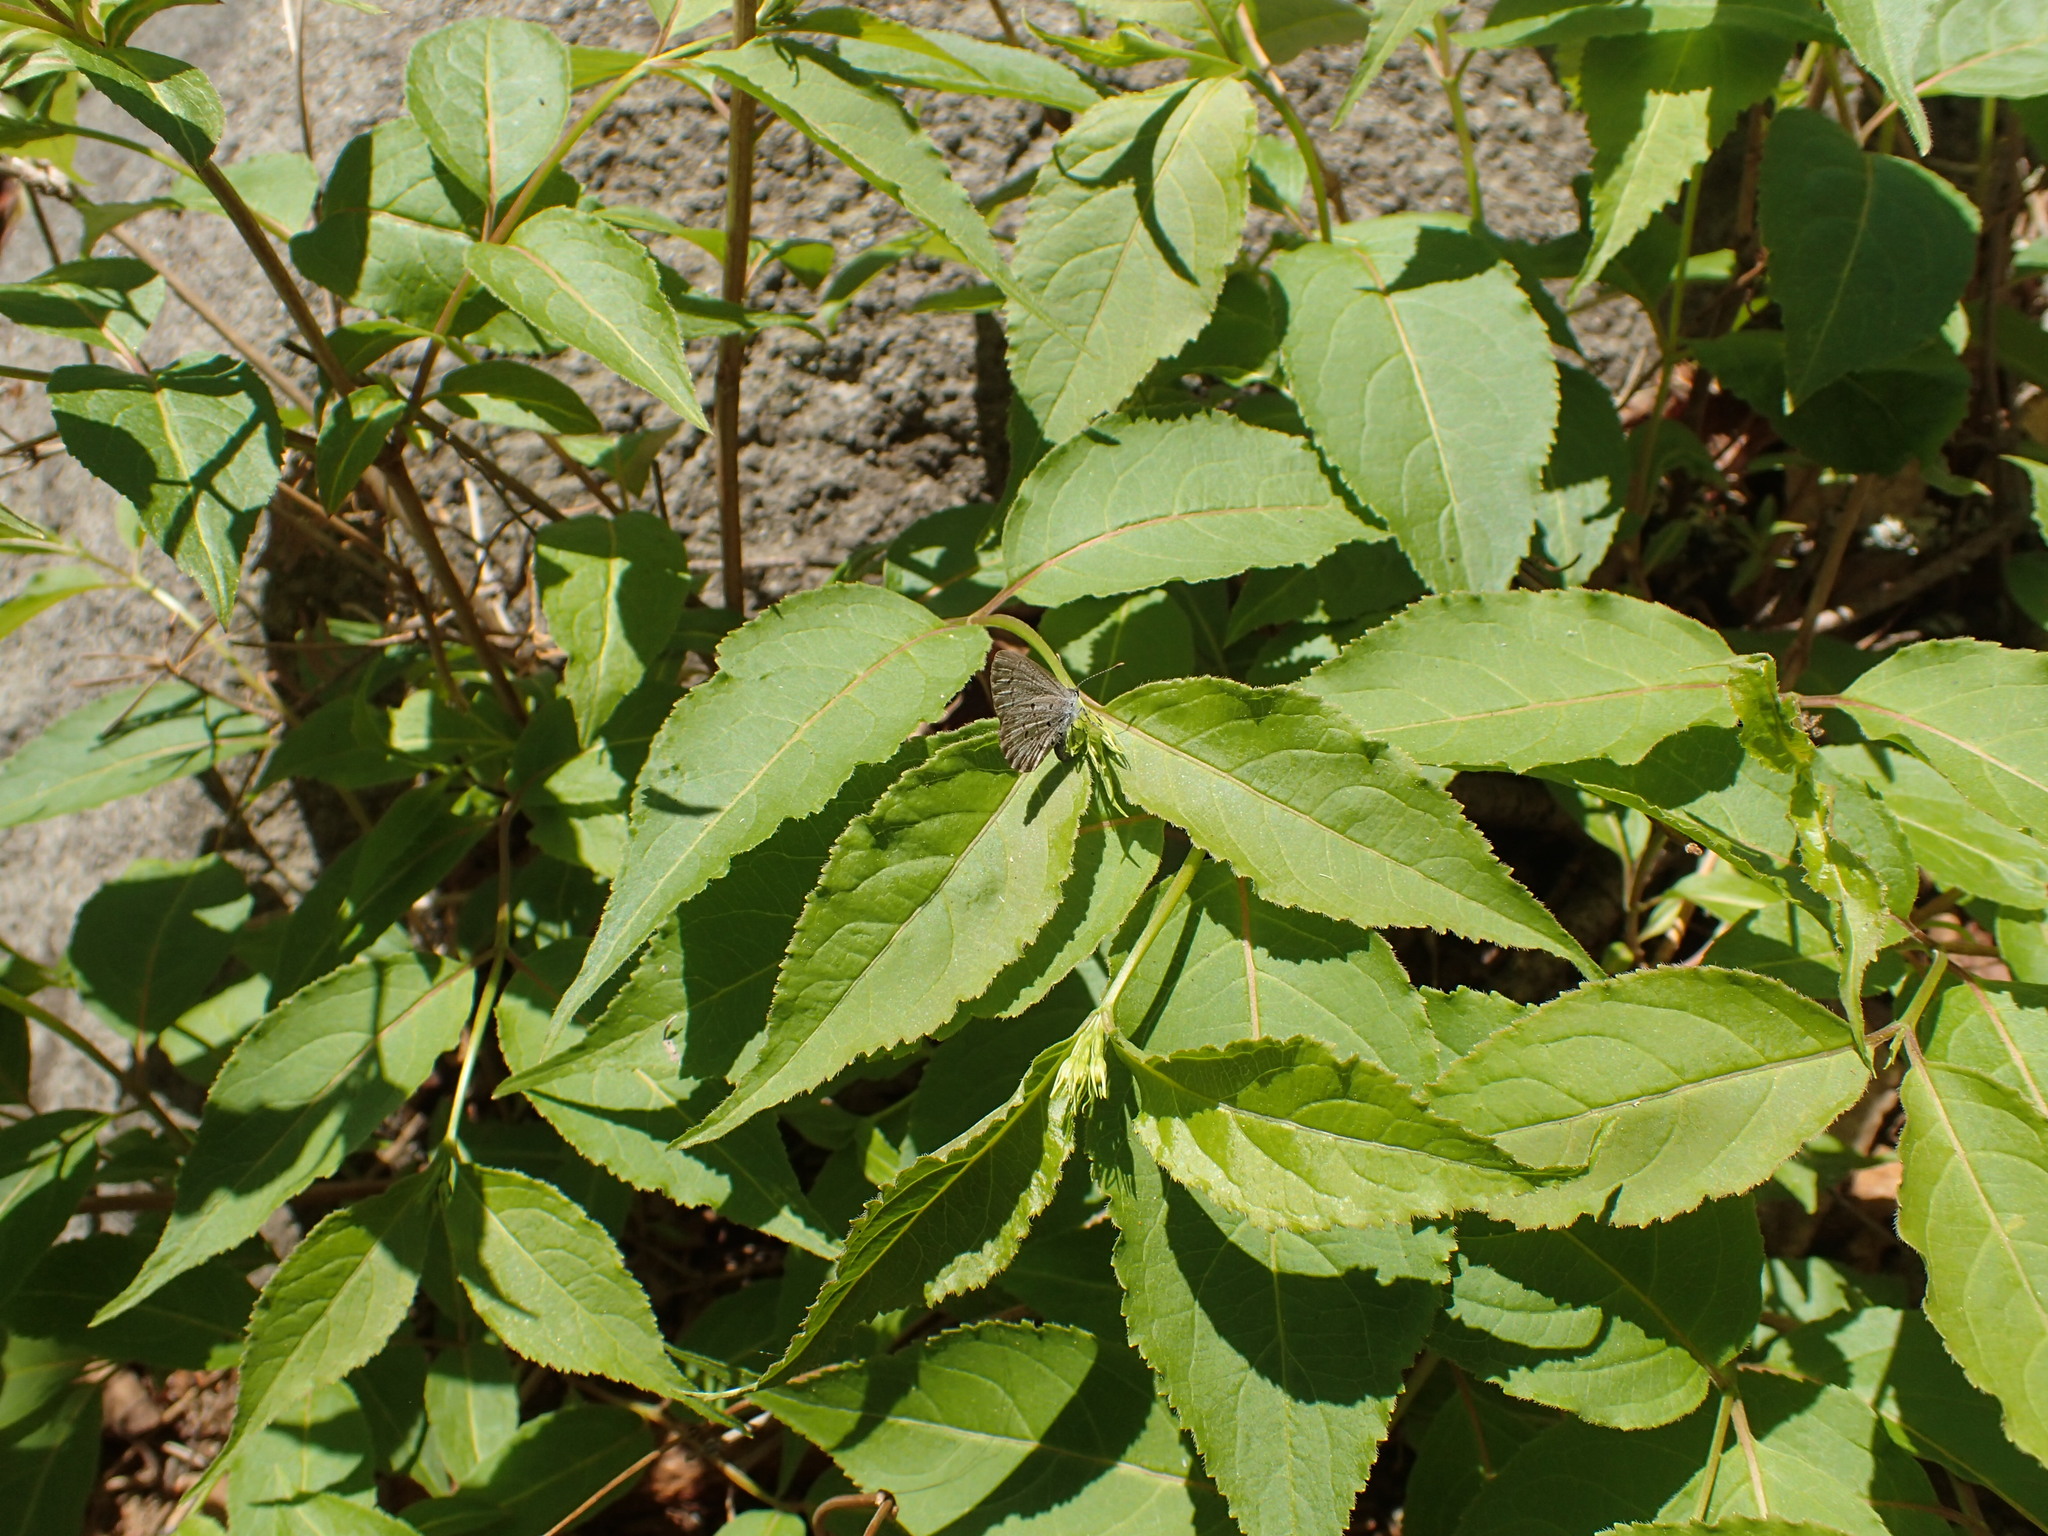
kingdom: Animalia
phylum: Arthropoda
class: Insecta
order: Lepidoptera
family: Lycaenidae
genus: Celastrina
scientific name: Celastrina lucia
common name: Lucia azure
